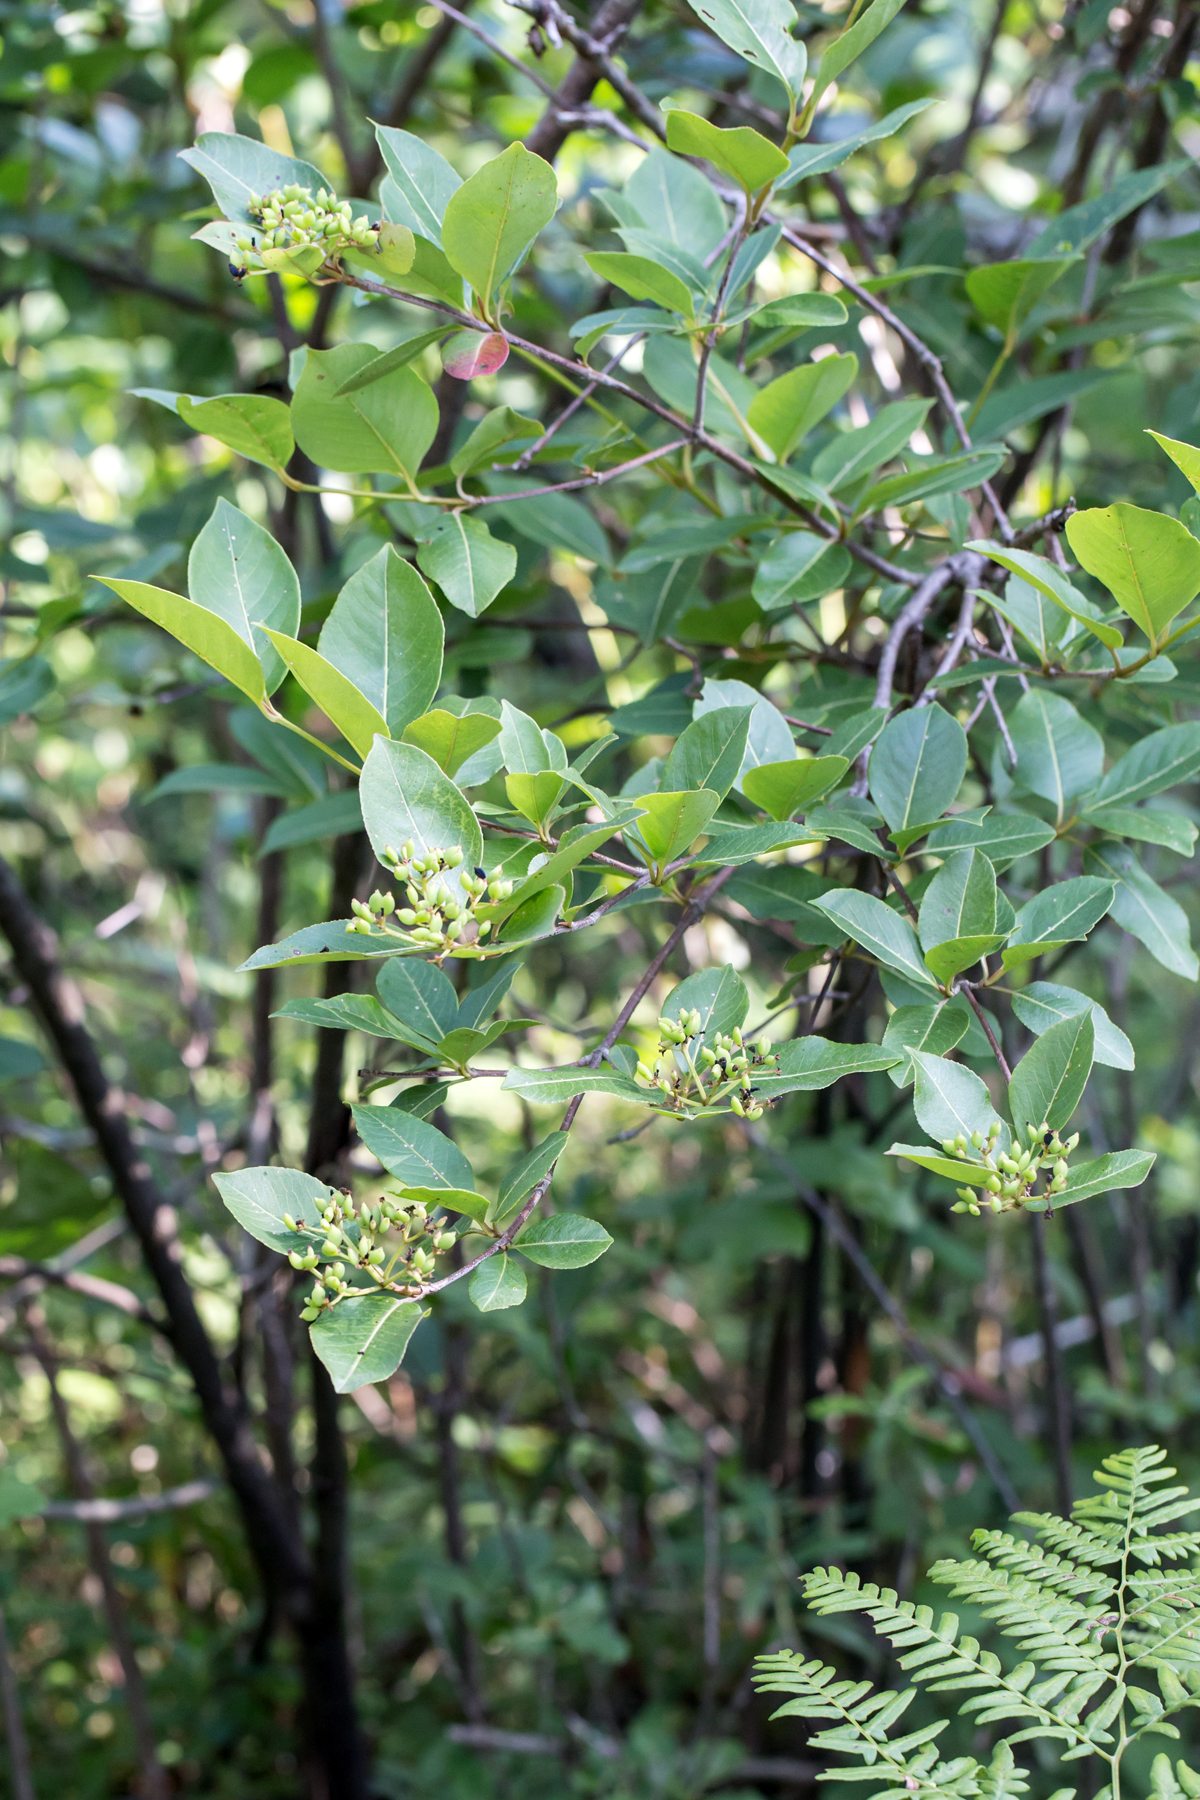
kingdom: Plantae
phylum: Tracheophyta
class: Magnoliopsida
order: Dipsacales
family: Viburnaceae
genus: Viburnum
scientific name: Viburnum cassinoides
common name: Swamp haw
